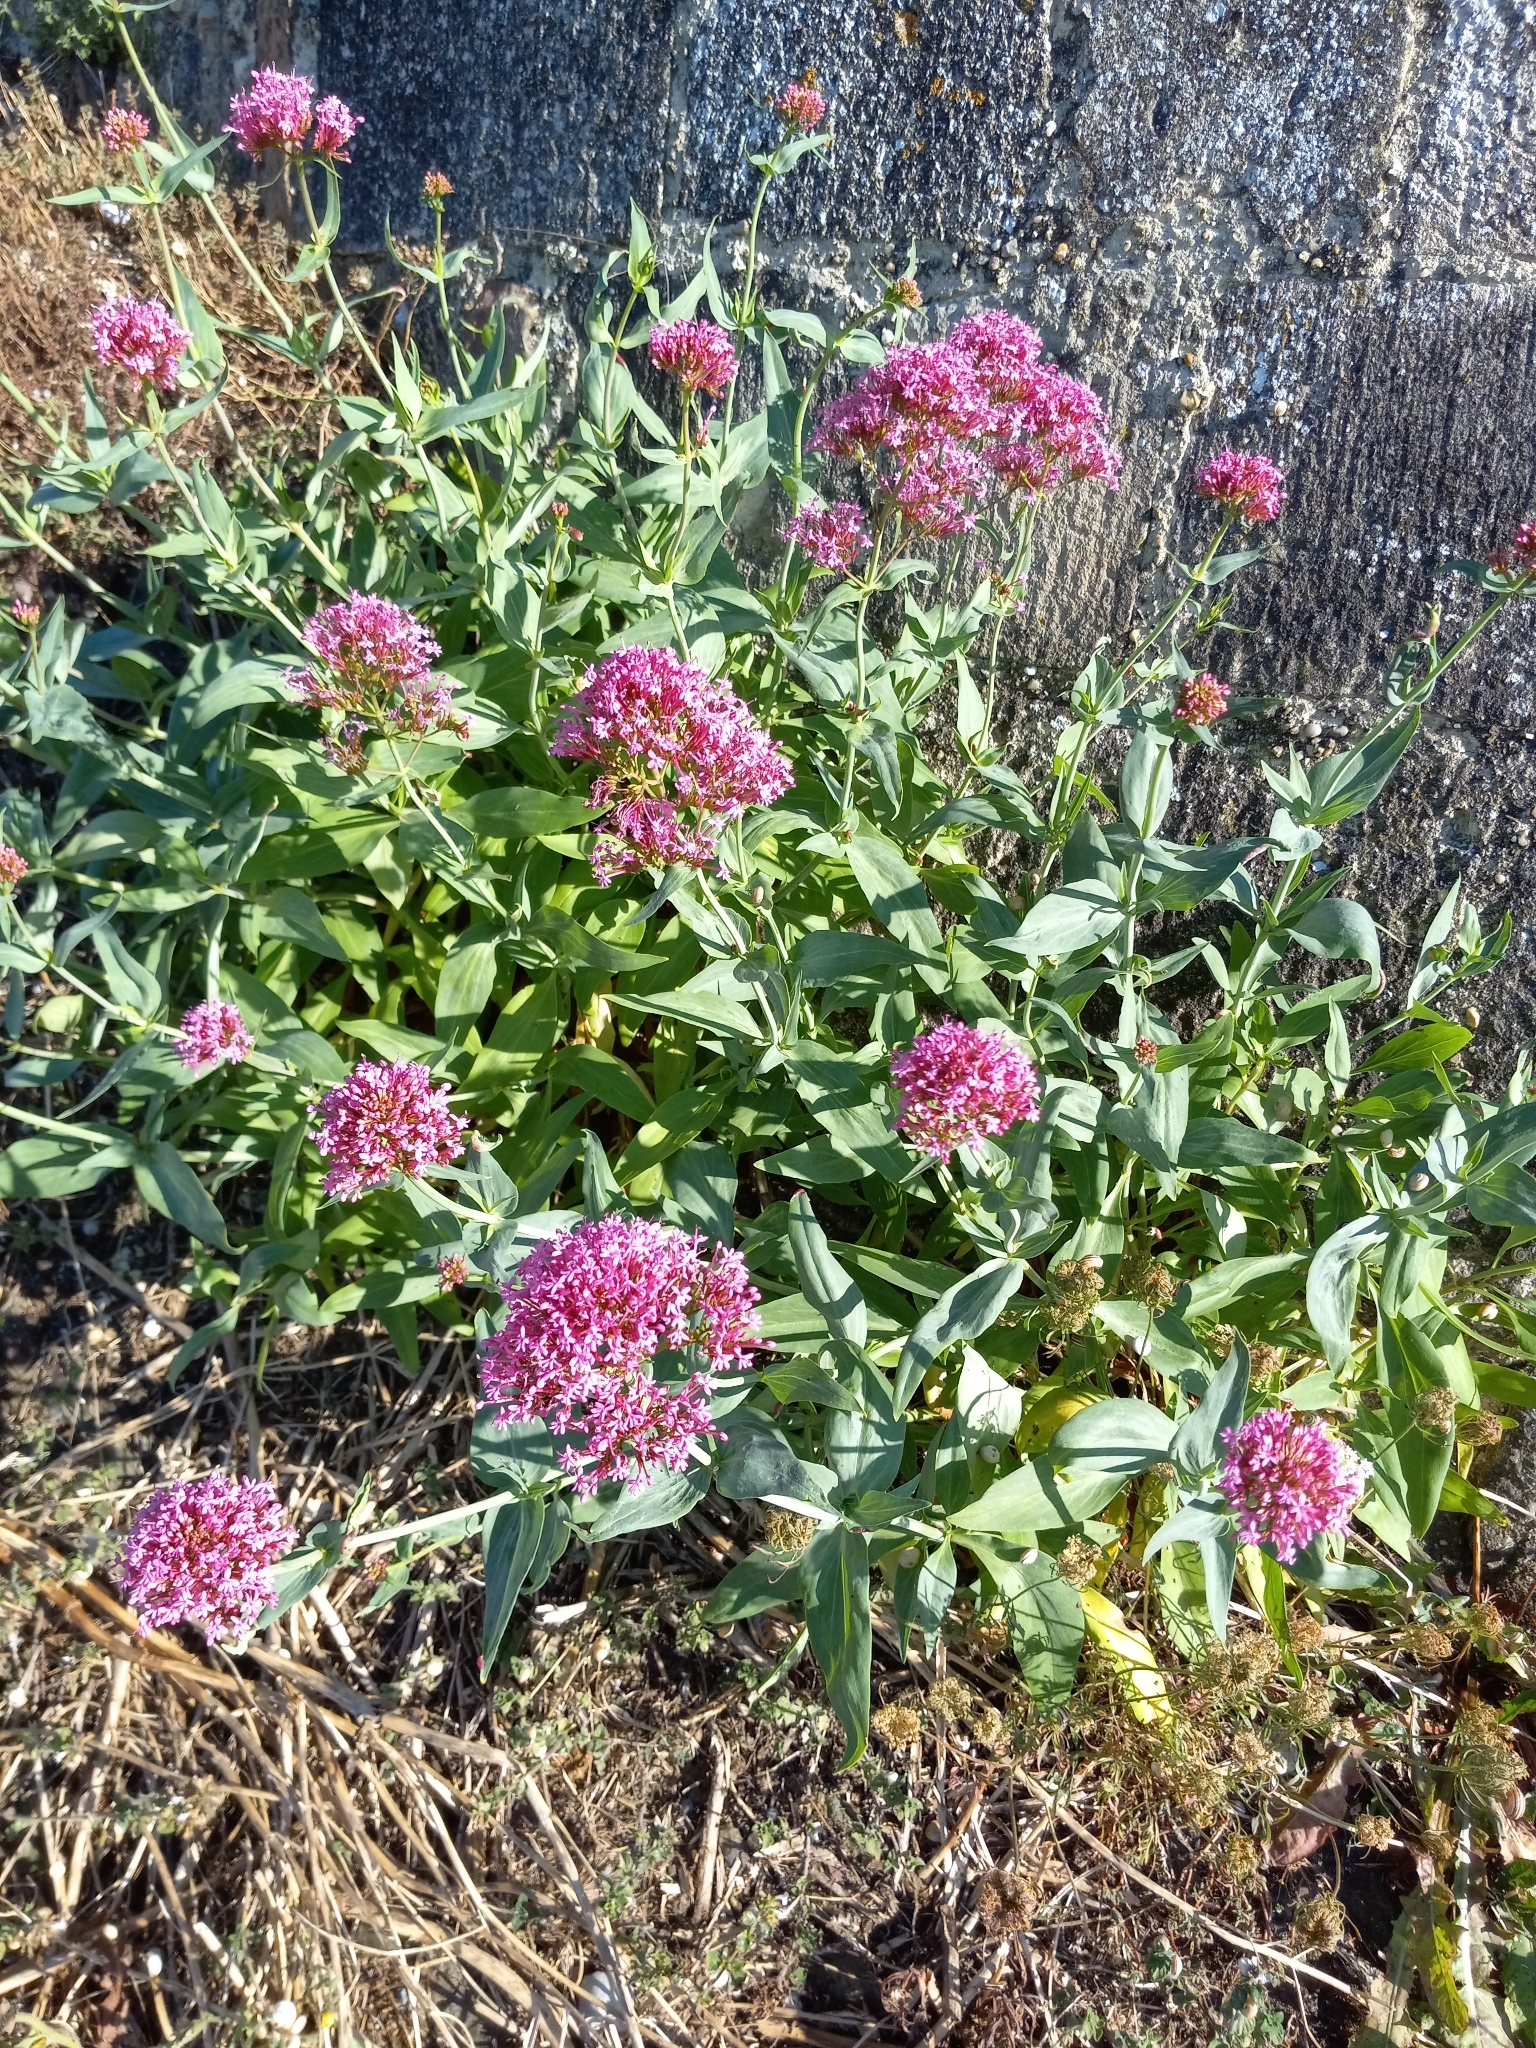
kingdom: Plantae
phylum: Tracheophyta
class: Magnoliopsida
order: Dipsacales
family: Caprifoliaceae
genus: Centranthus
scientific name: Centranthus ruber
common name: Red valerian
